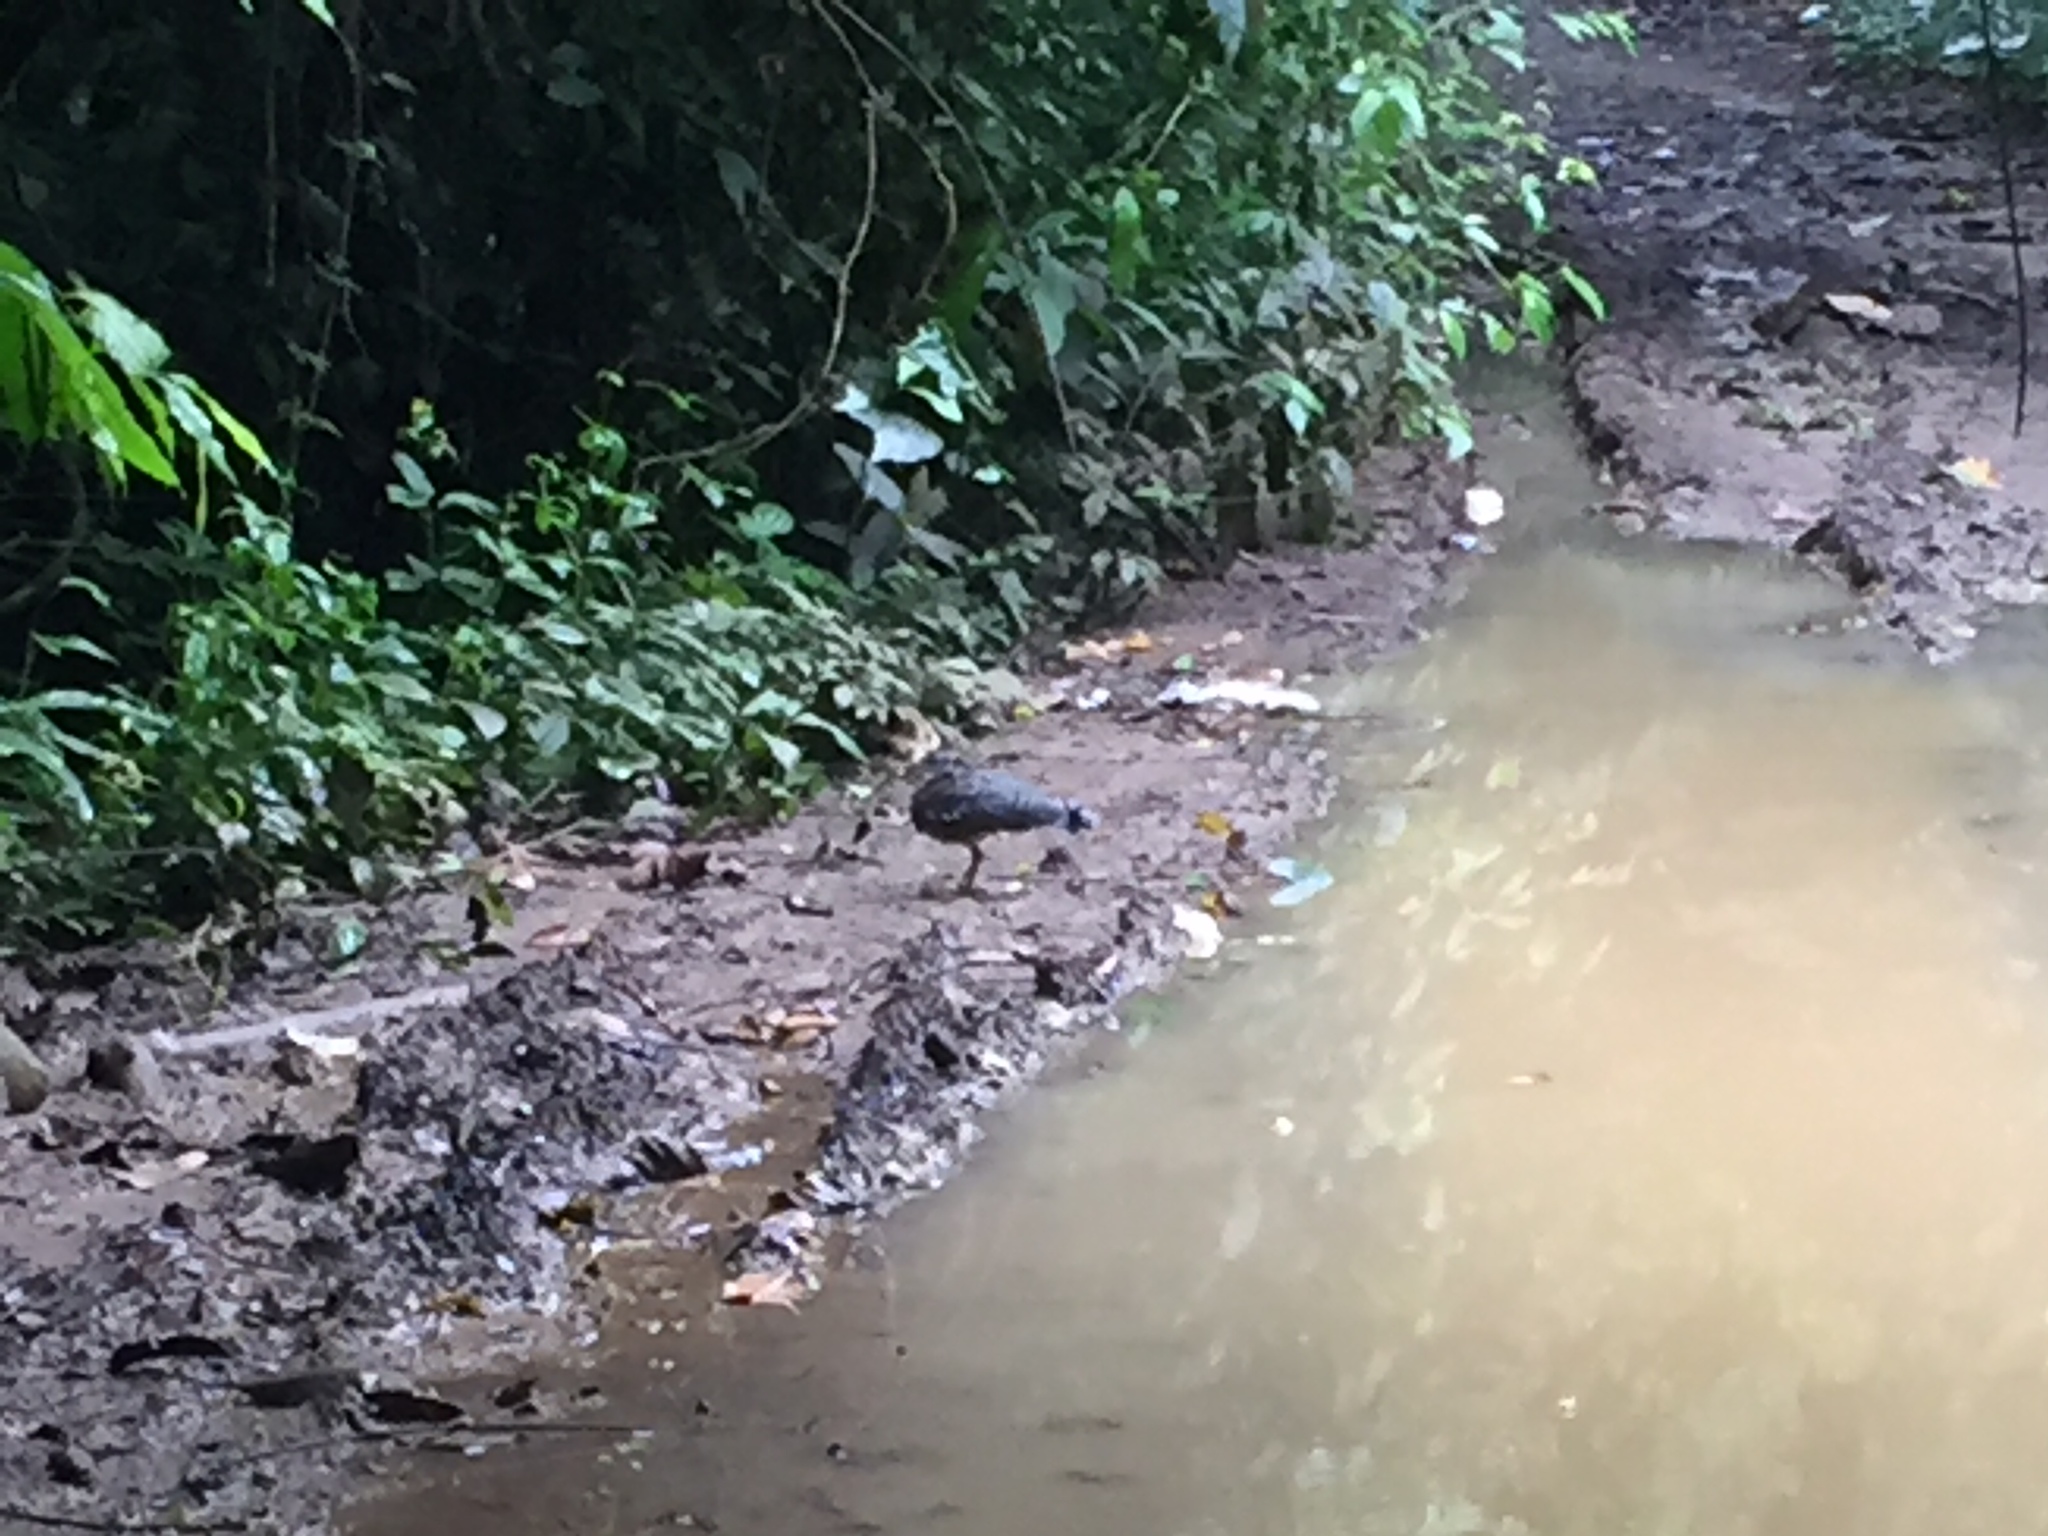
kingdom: Animalia
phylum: Chordata
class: Aves
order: Eurypygiformes
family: Eurypygidae
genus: Eurypyga
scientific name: Eurypyga helias
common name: Sunbittern
